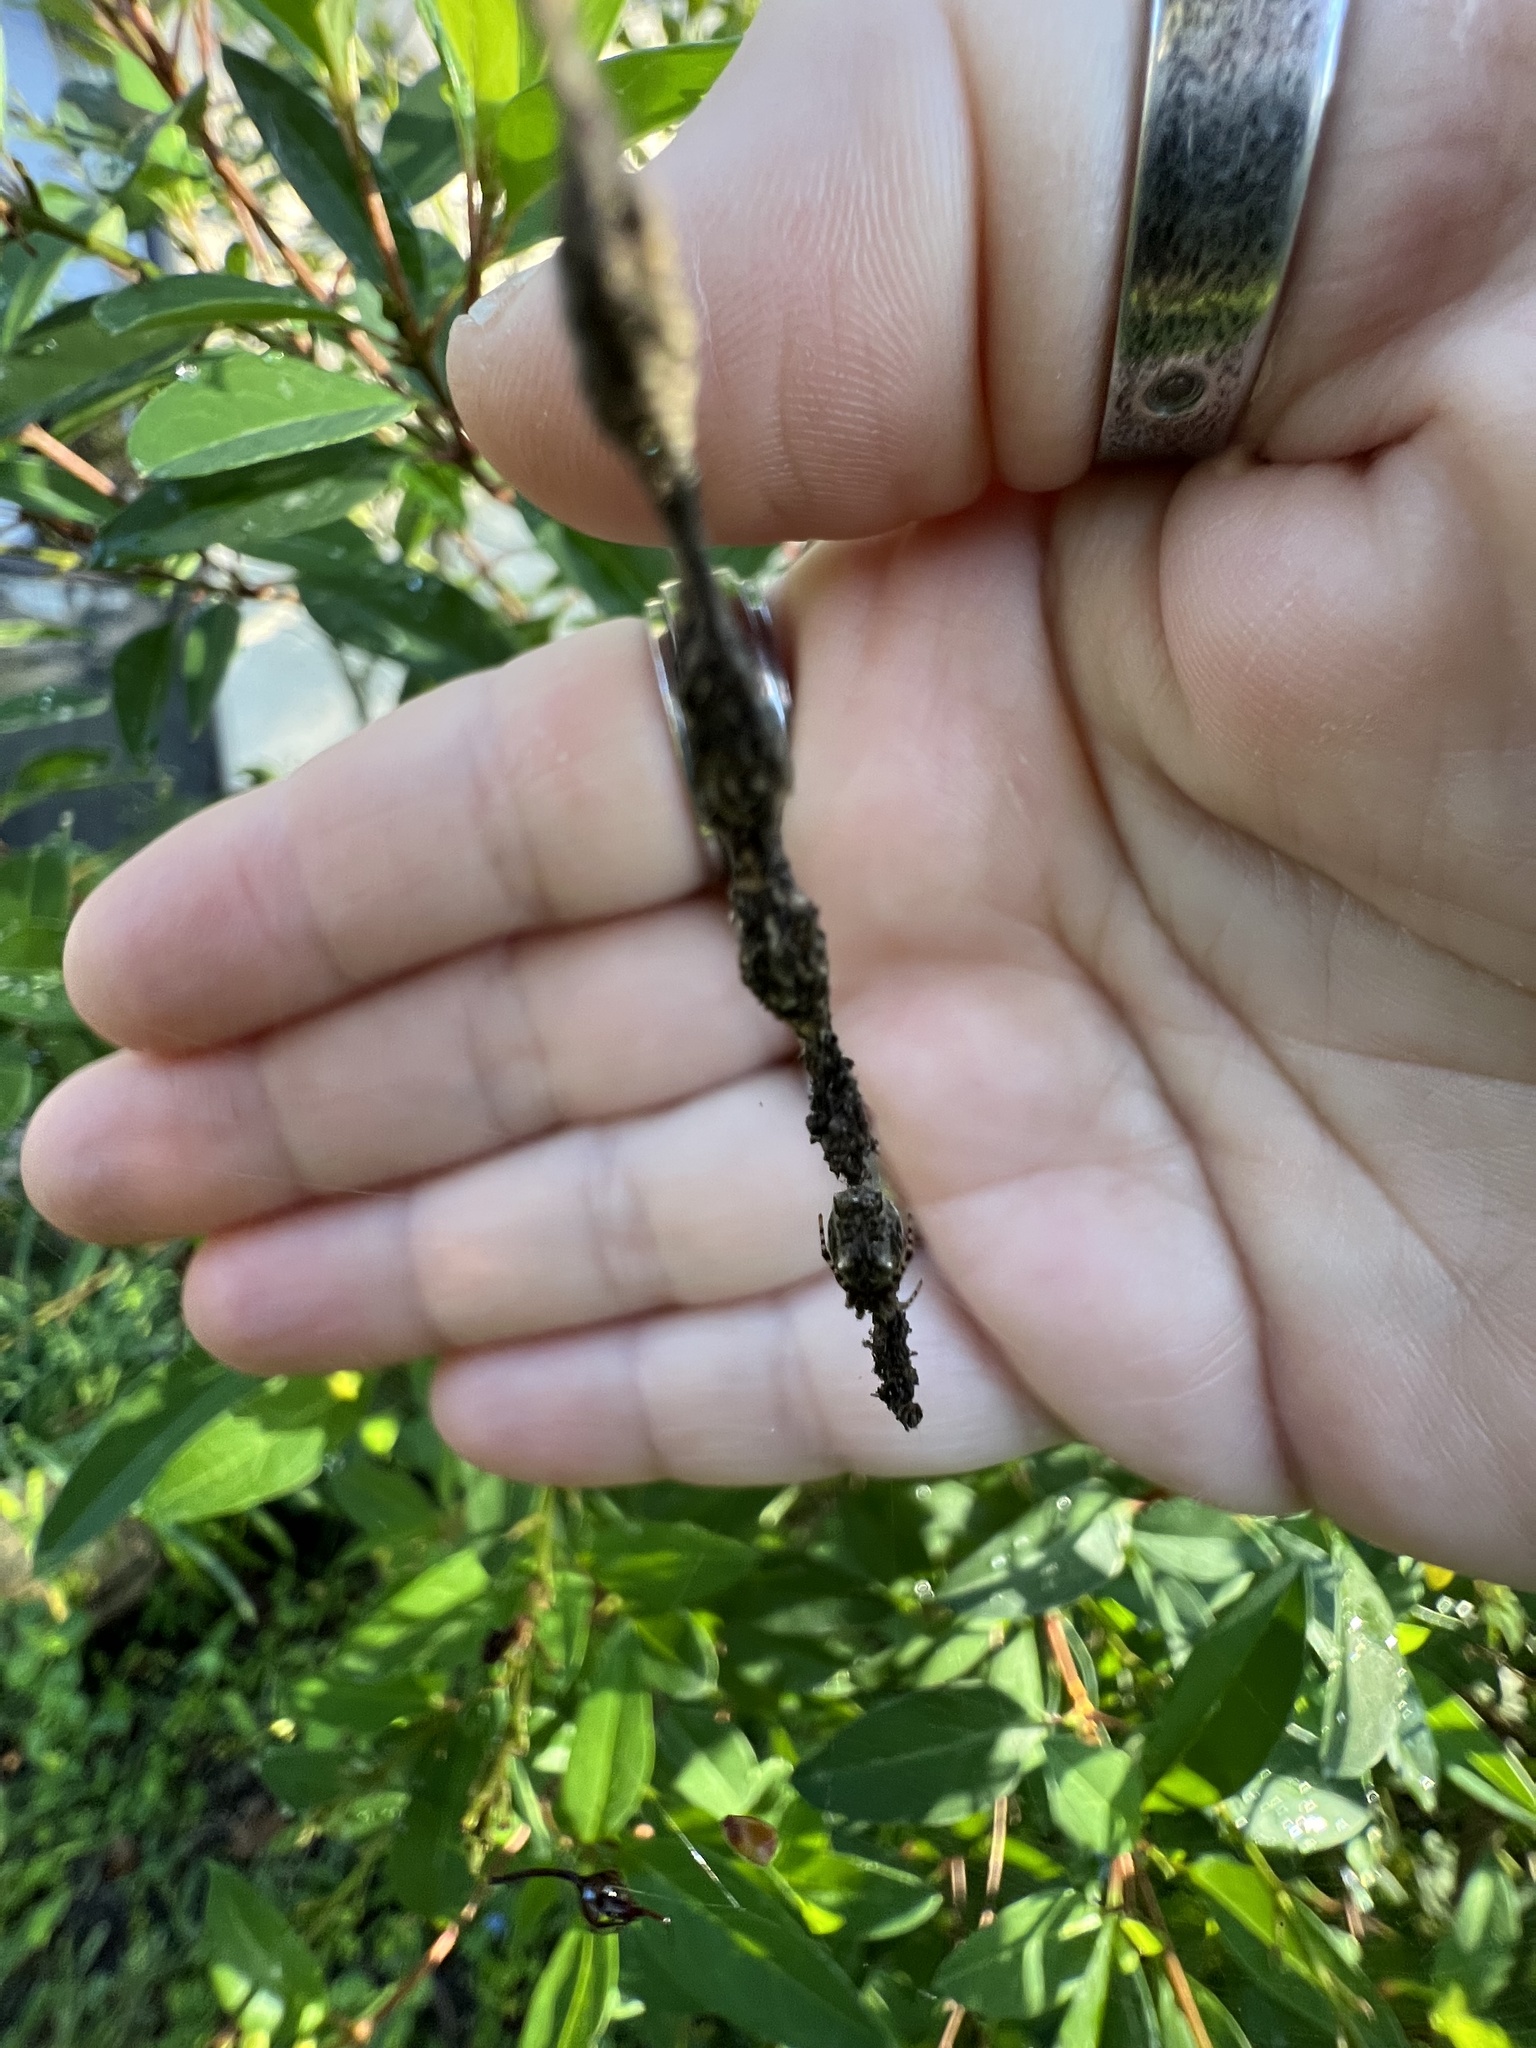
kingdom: Animalia
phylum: Arthropoda
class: Arachnida
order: Araneae
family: Araneidae
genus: Cyclosa
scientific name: Cyclosa walckenaeri
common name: Orb weavers
